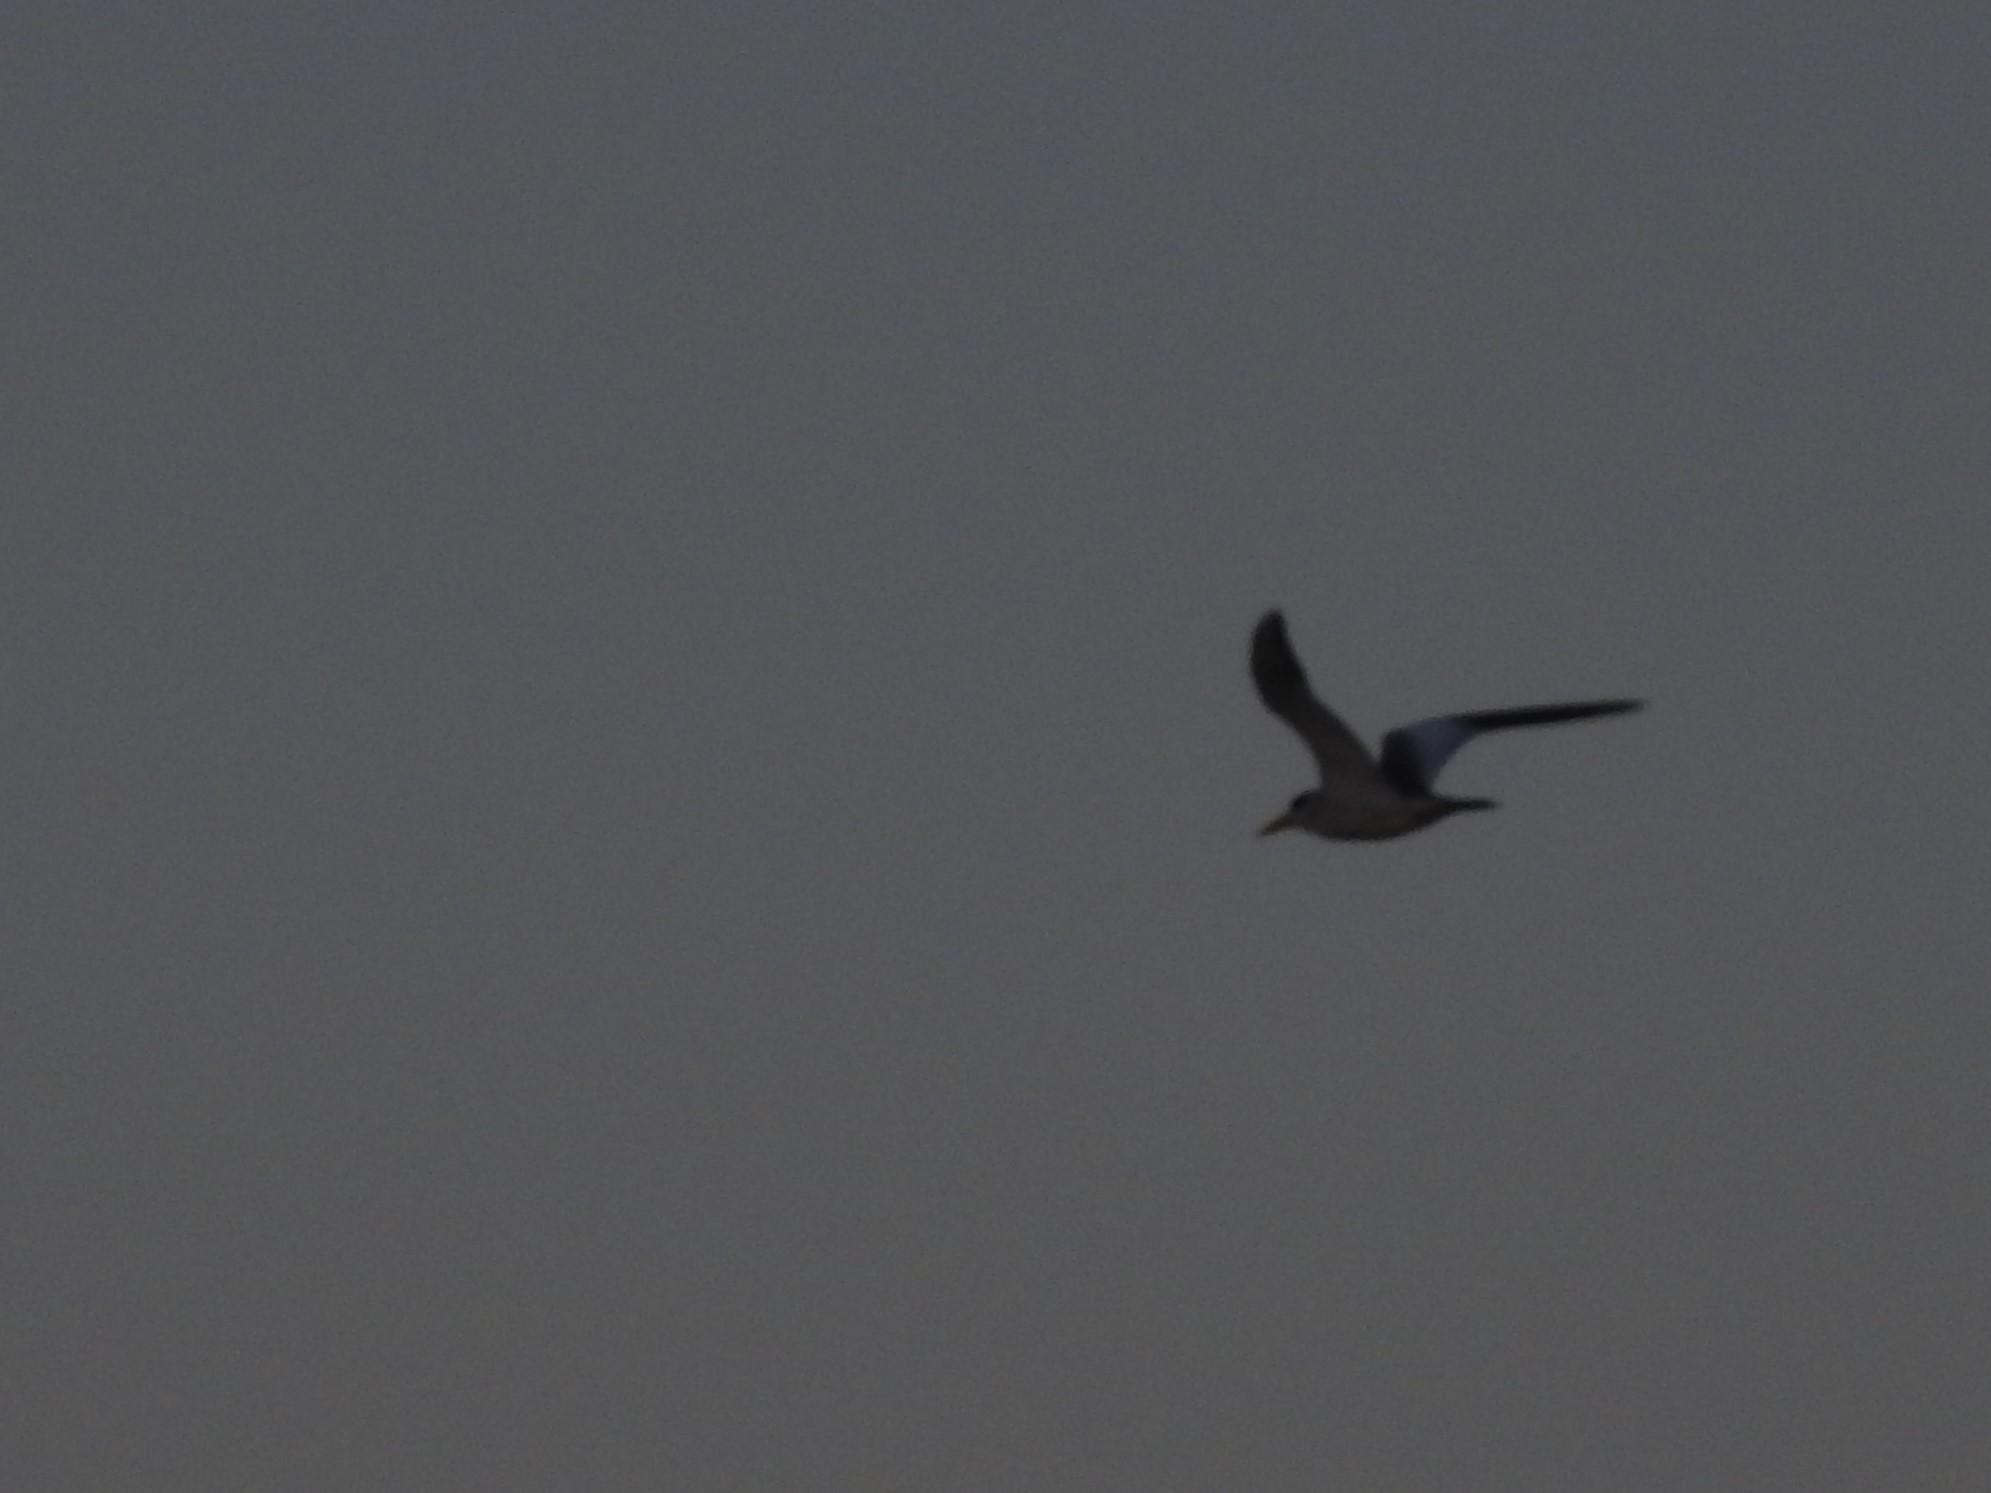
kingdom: Animalia
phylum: Chordata
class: Aves
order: Charadriiformes
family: Laridae
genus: Phaetusa
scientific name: Phaetusa simplex
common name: Large-billed tern
